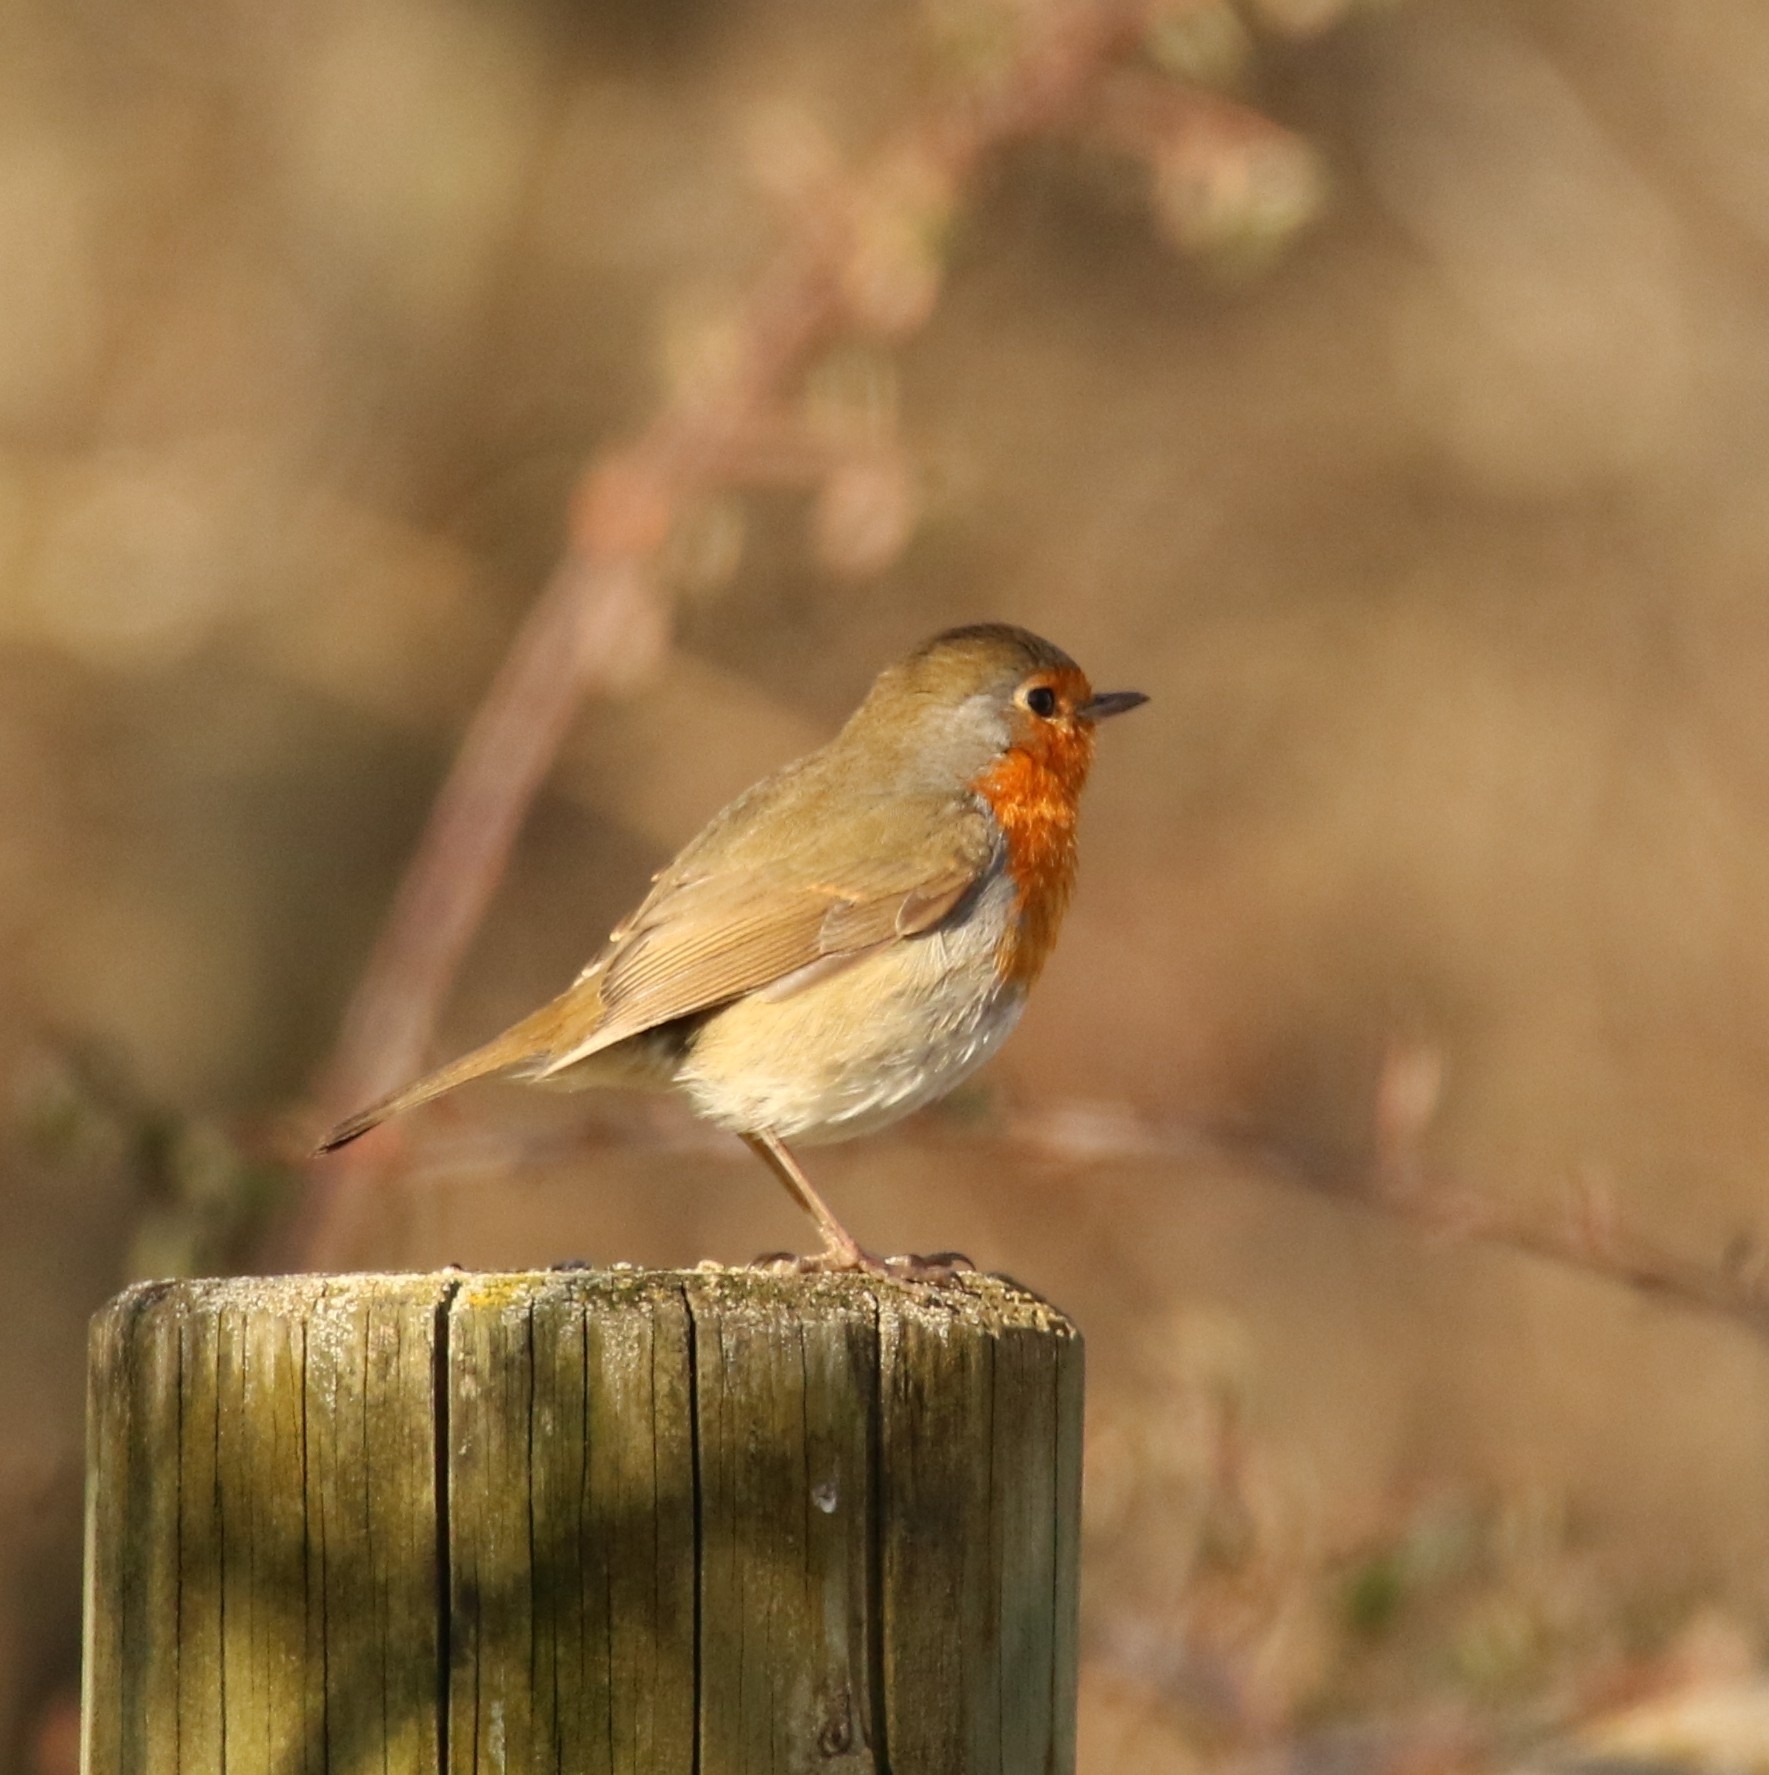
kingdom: Animalia
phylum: Chordata
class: Aves
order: Passeriformes
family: Muscicapidae
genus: Erithacus
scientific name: Erithacus rubecula
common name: European robin
